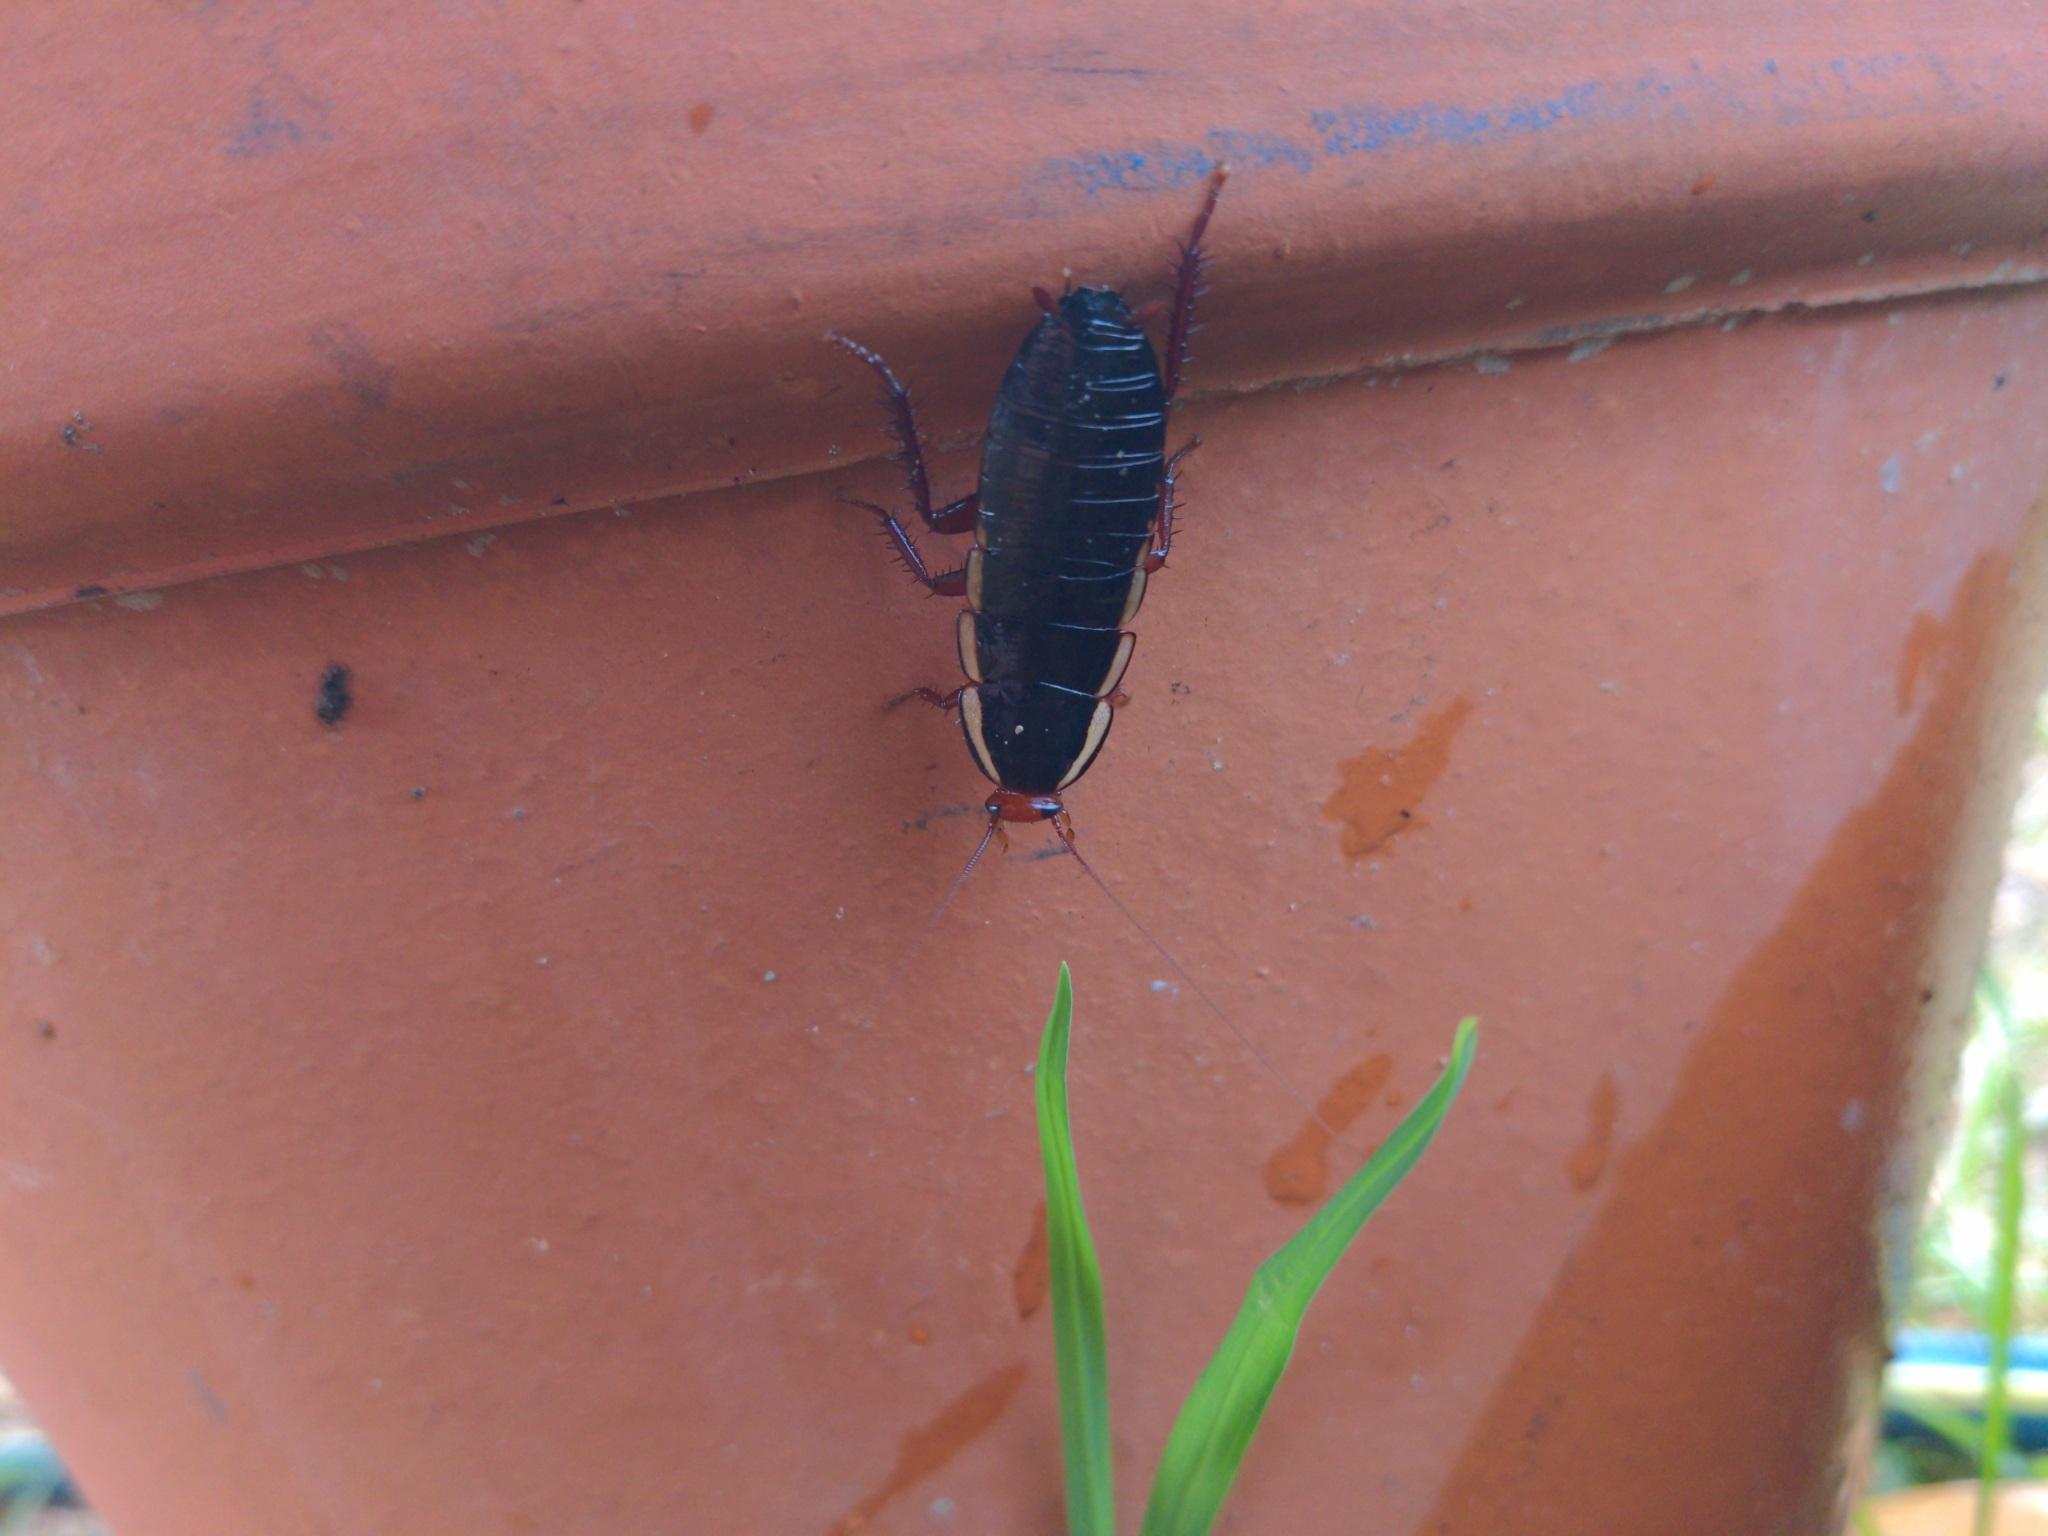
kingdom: Animalia
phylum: Arthropoda
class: Insecta
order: Blattodea
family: Blattidae
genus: Drymaplaneta
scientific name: Drymaplaneta communis
